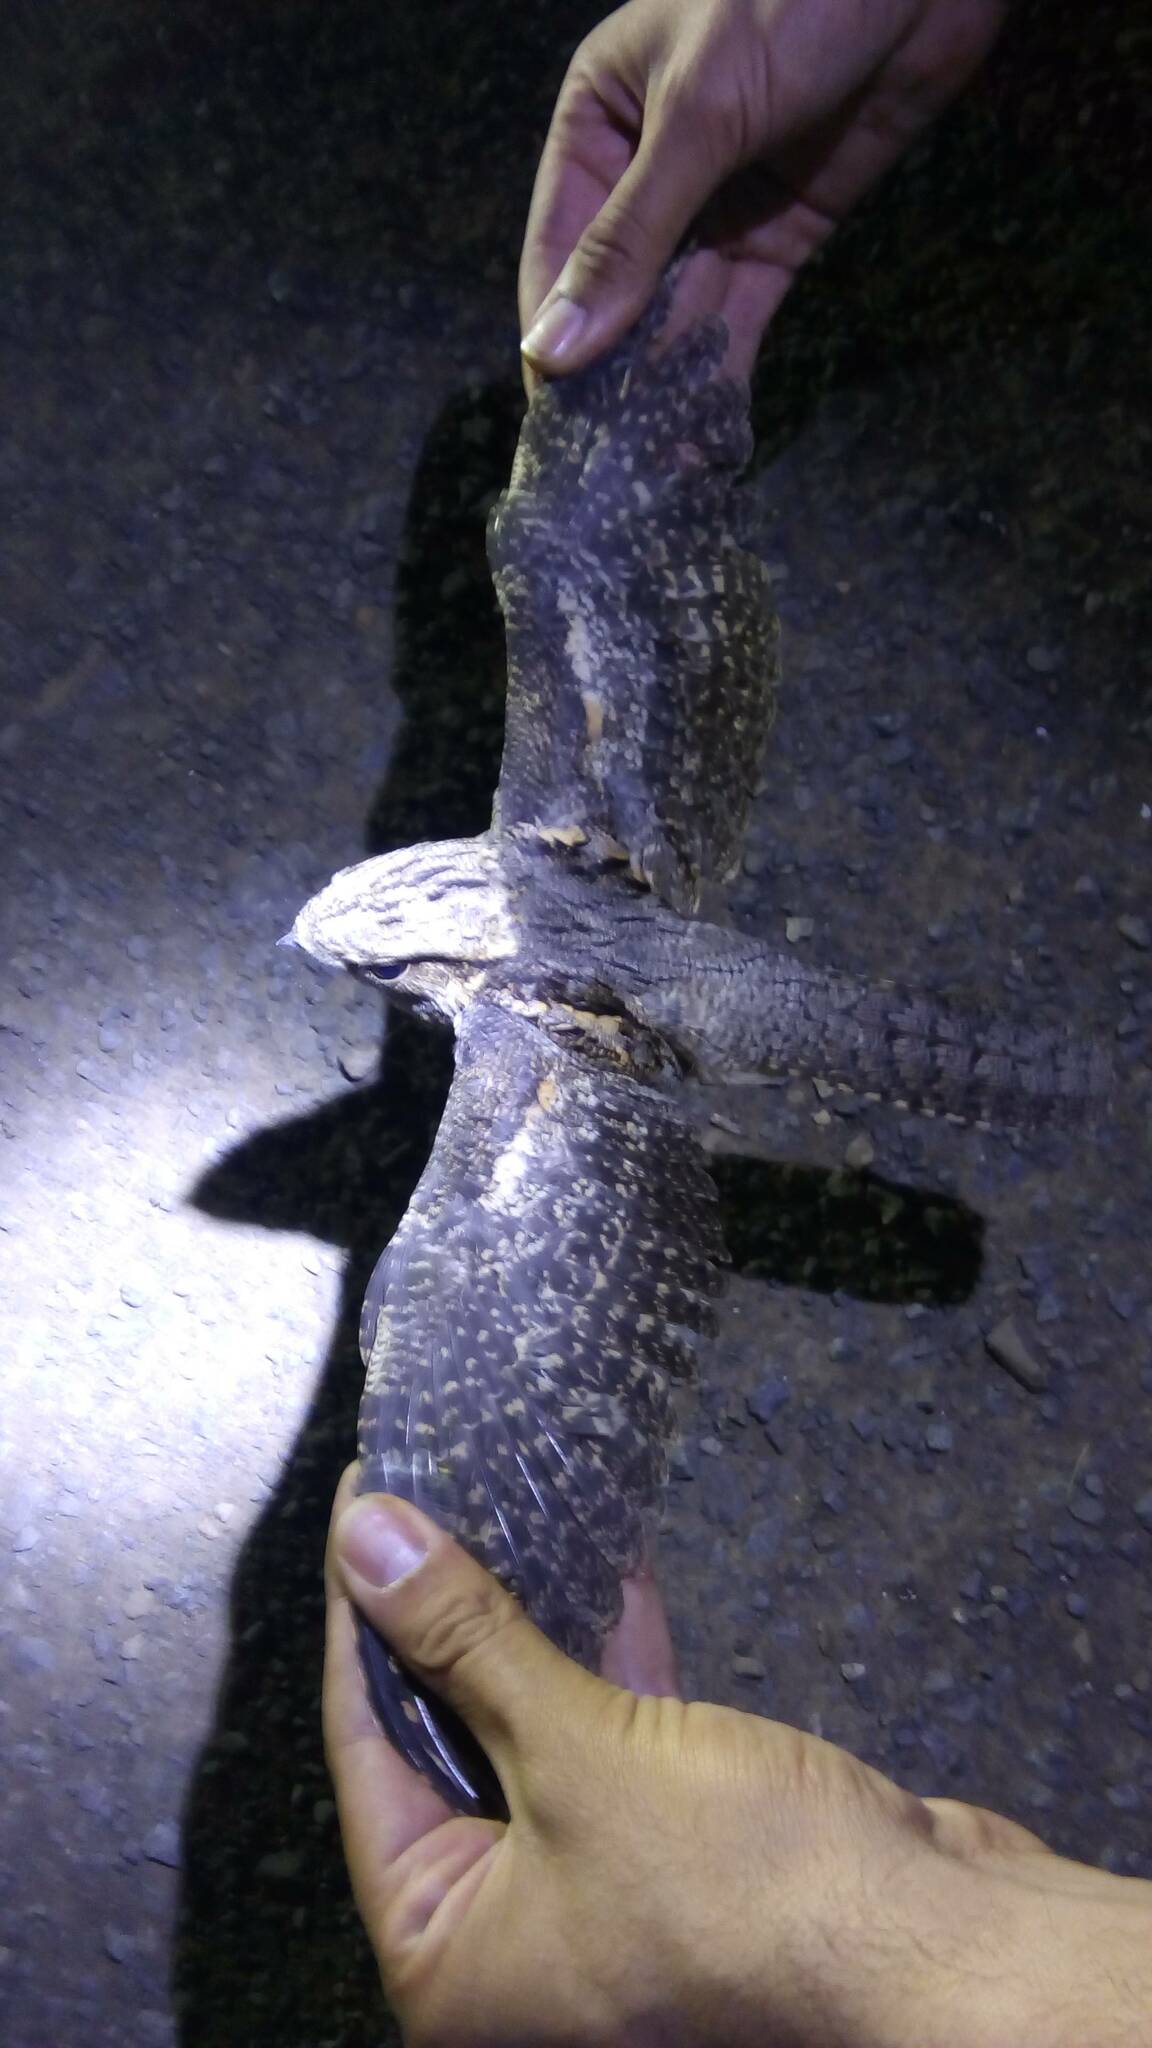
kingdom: Animalia
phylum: Chordata
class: Aves
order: Caprimulgiformes
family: Caprimulgidae
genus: Caprimulgus
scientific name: Caprimulgus europaeus
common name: European nightjar
